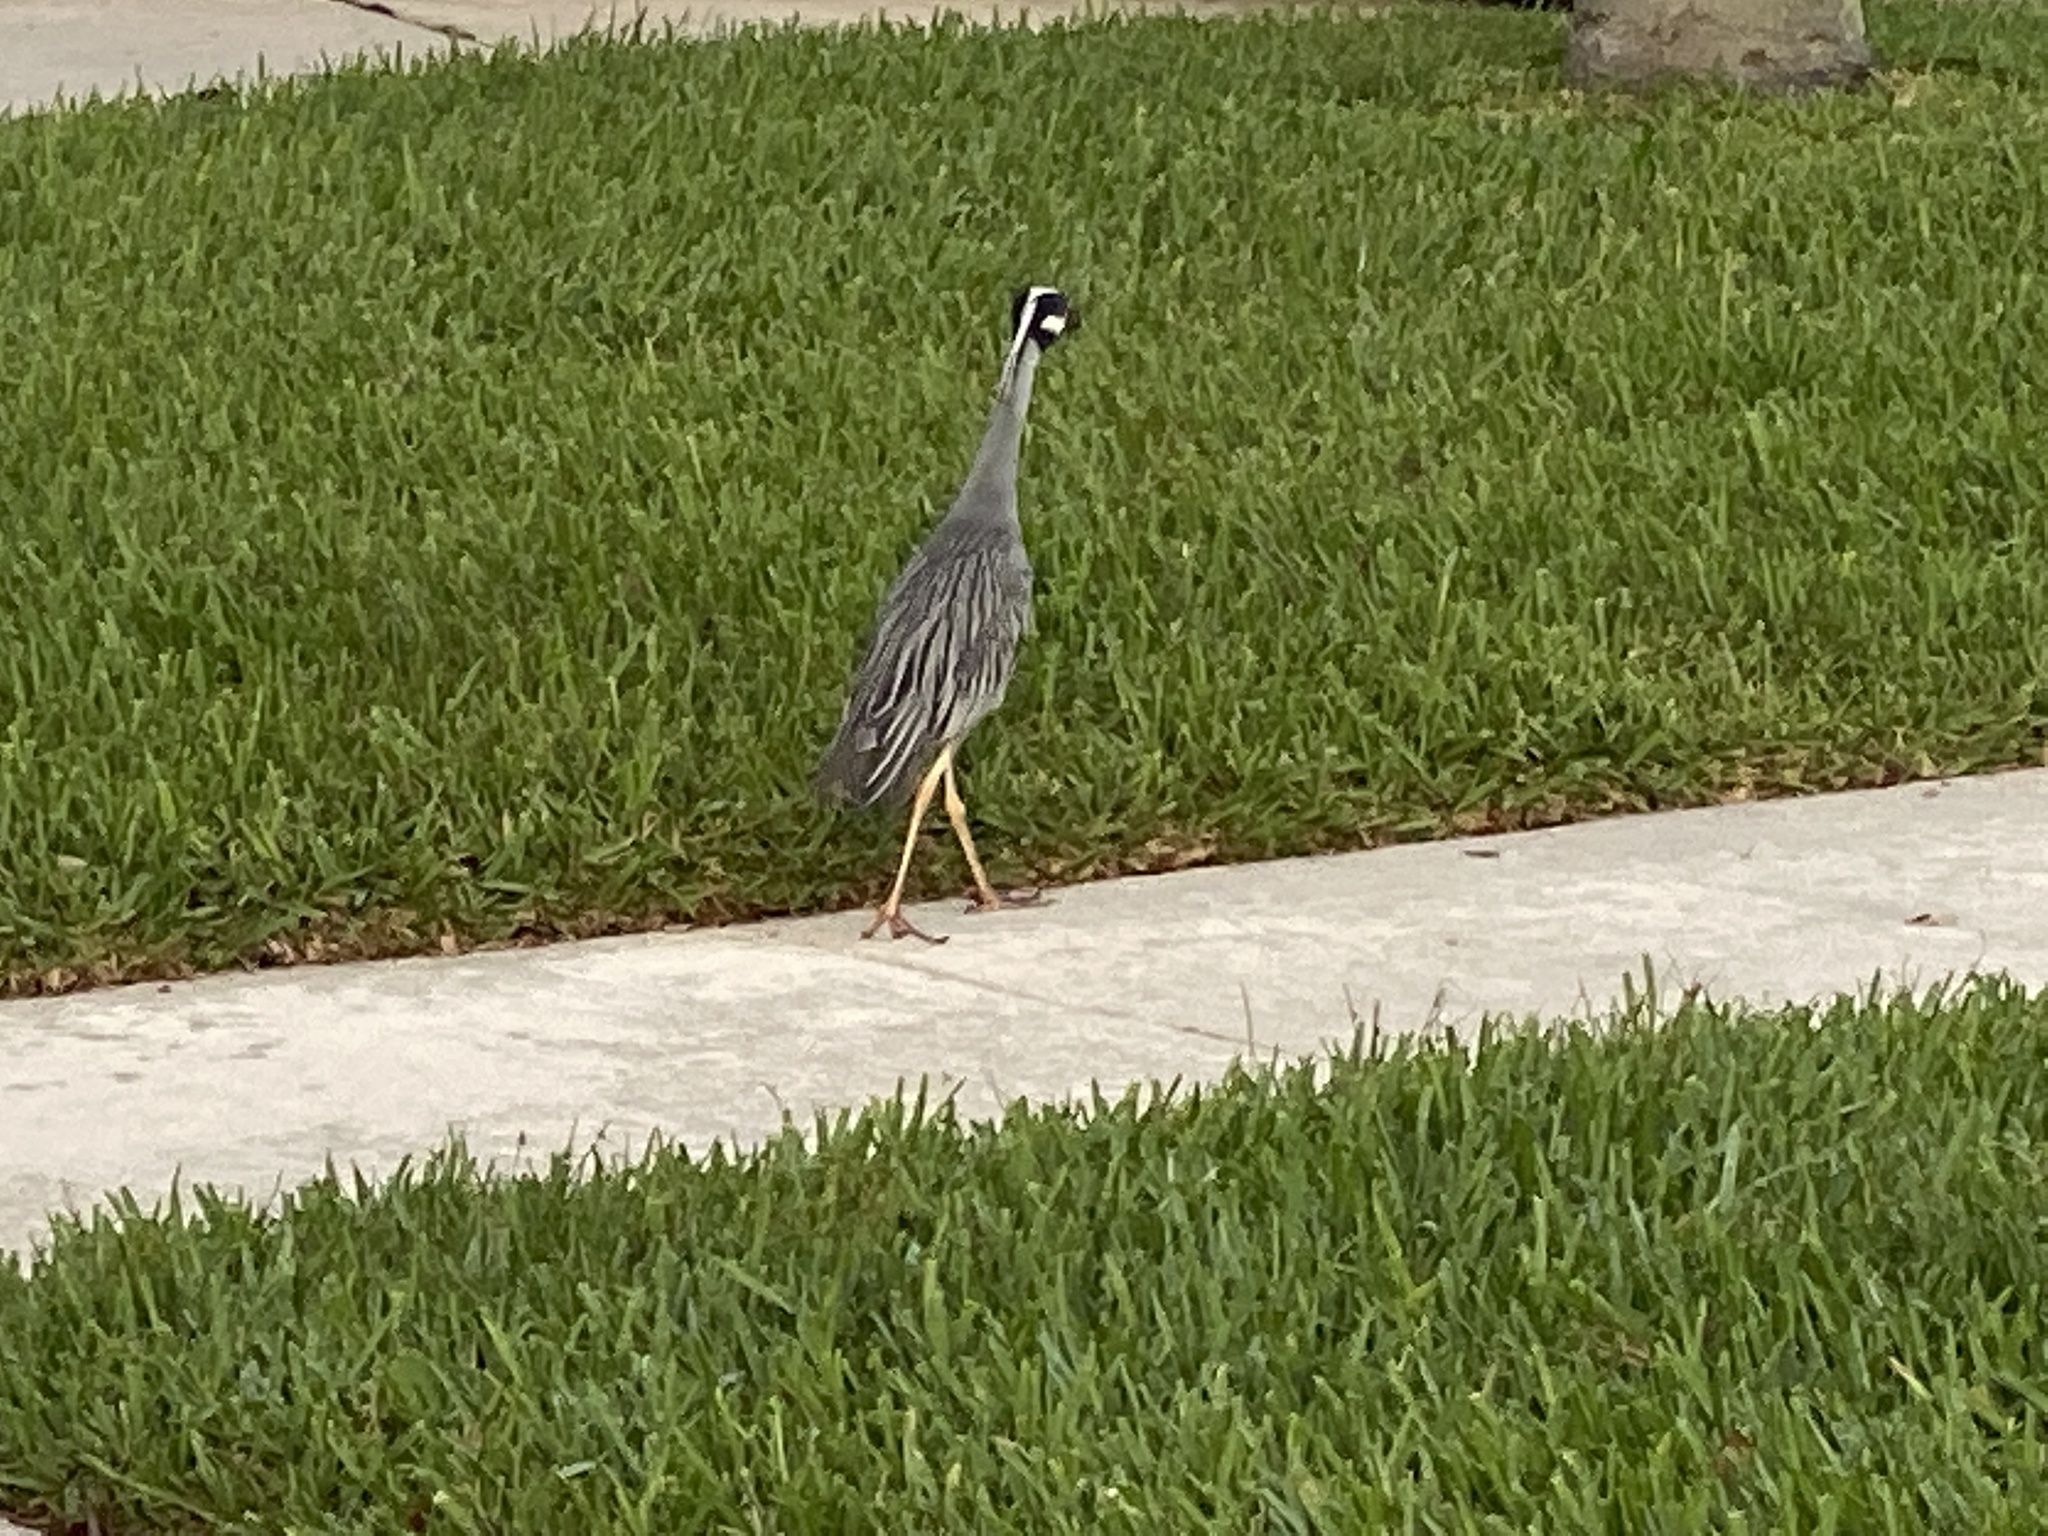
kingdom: Animalia
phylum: Chordata
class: Aves
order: Pelecaniformes
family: Ardeidae
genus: Nyctanassa
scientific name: Nyctanassa violacea
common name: Yellow-crowned night heron
